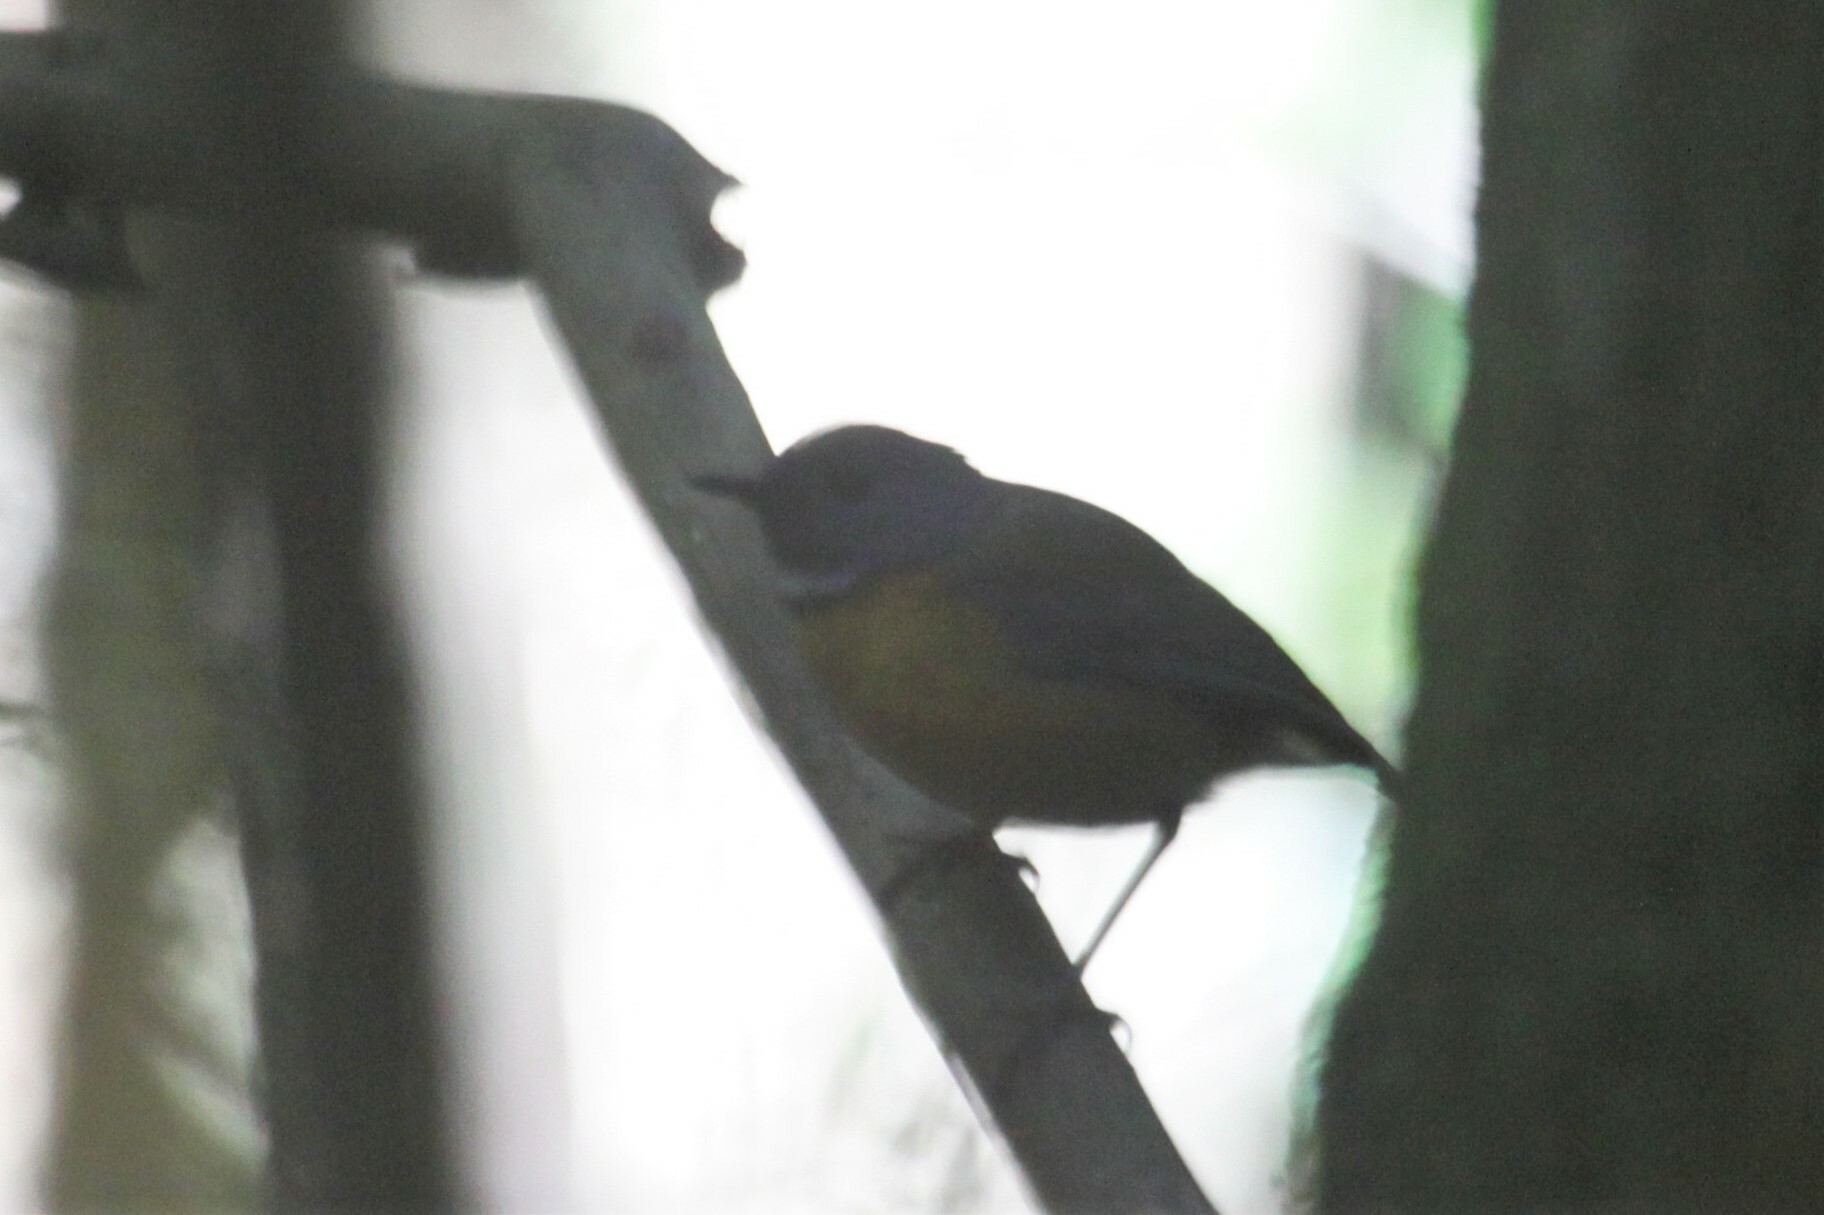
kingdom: Animalia
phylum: Chordata
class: Aves
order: Passeriformes
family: Muscicapidae
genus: Swynnertonia
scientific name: Swynnertonia swynnertoni
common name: Swynnerton's robin
